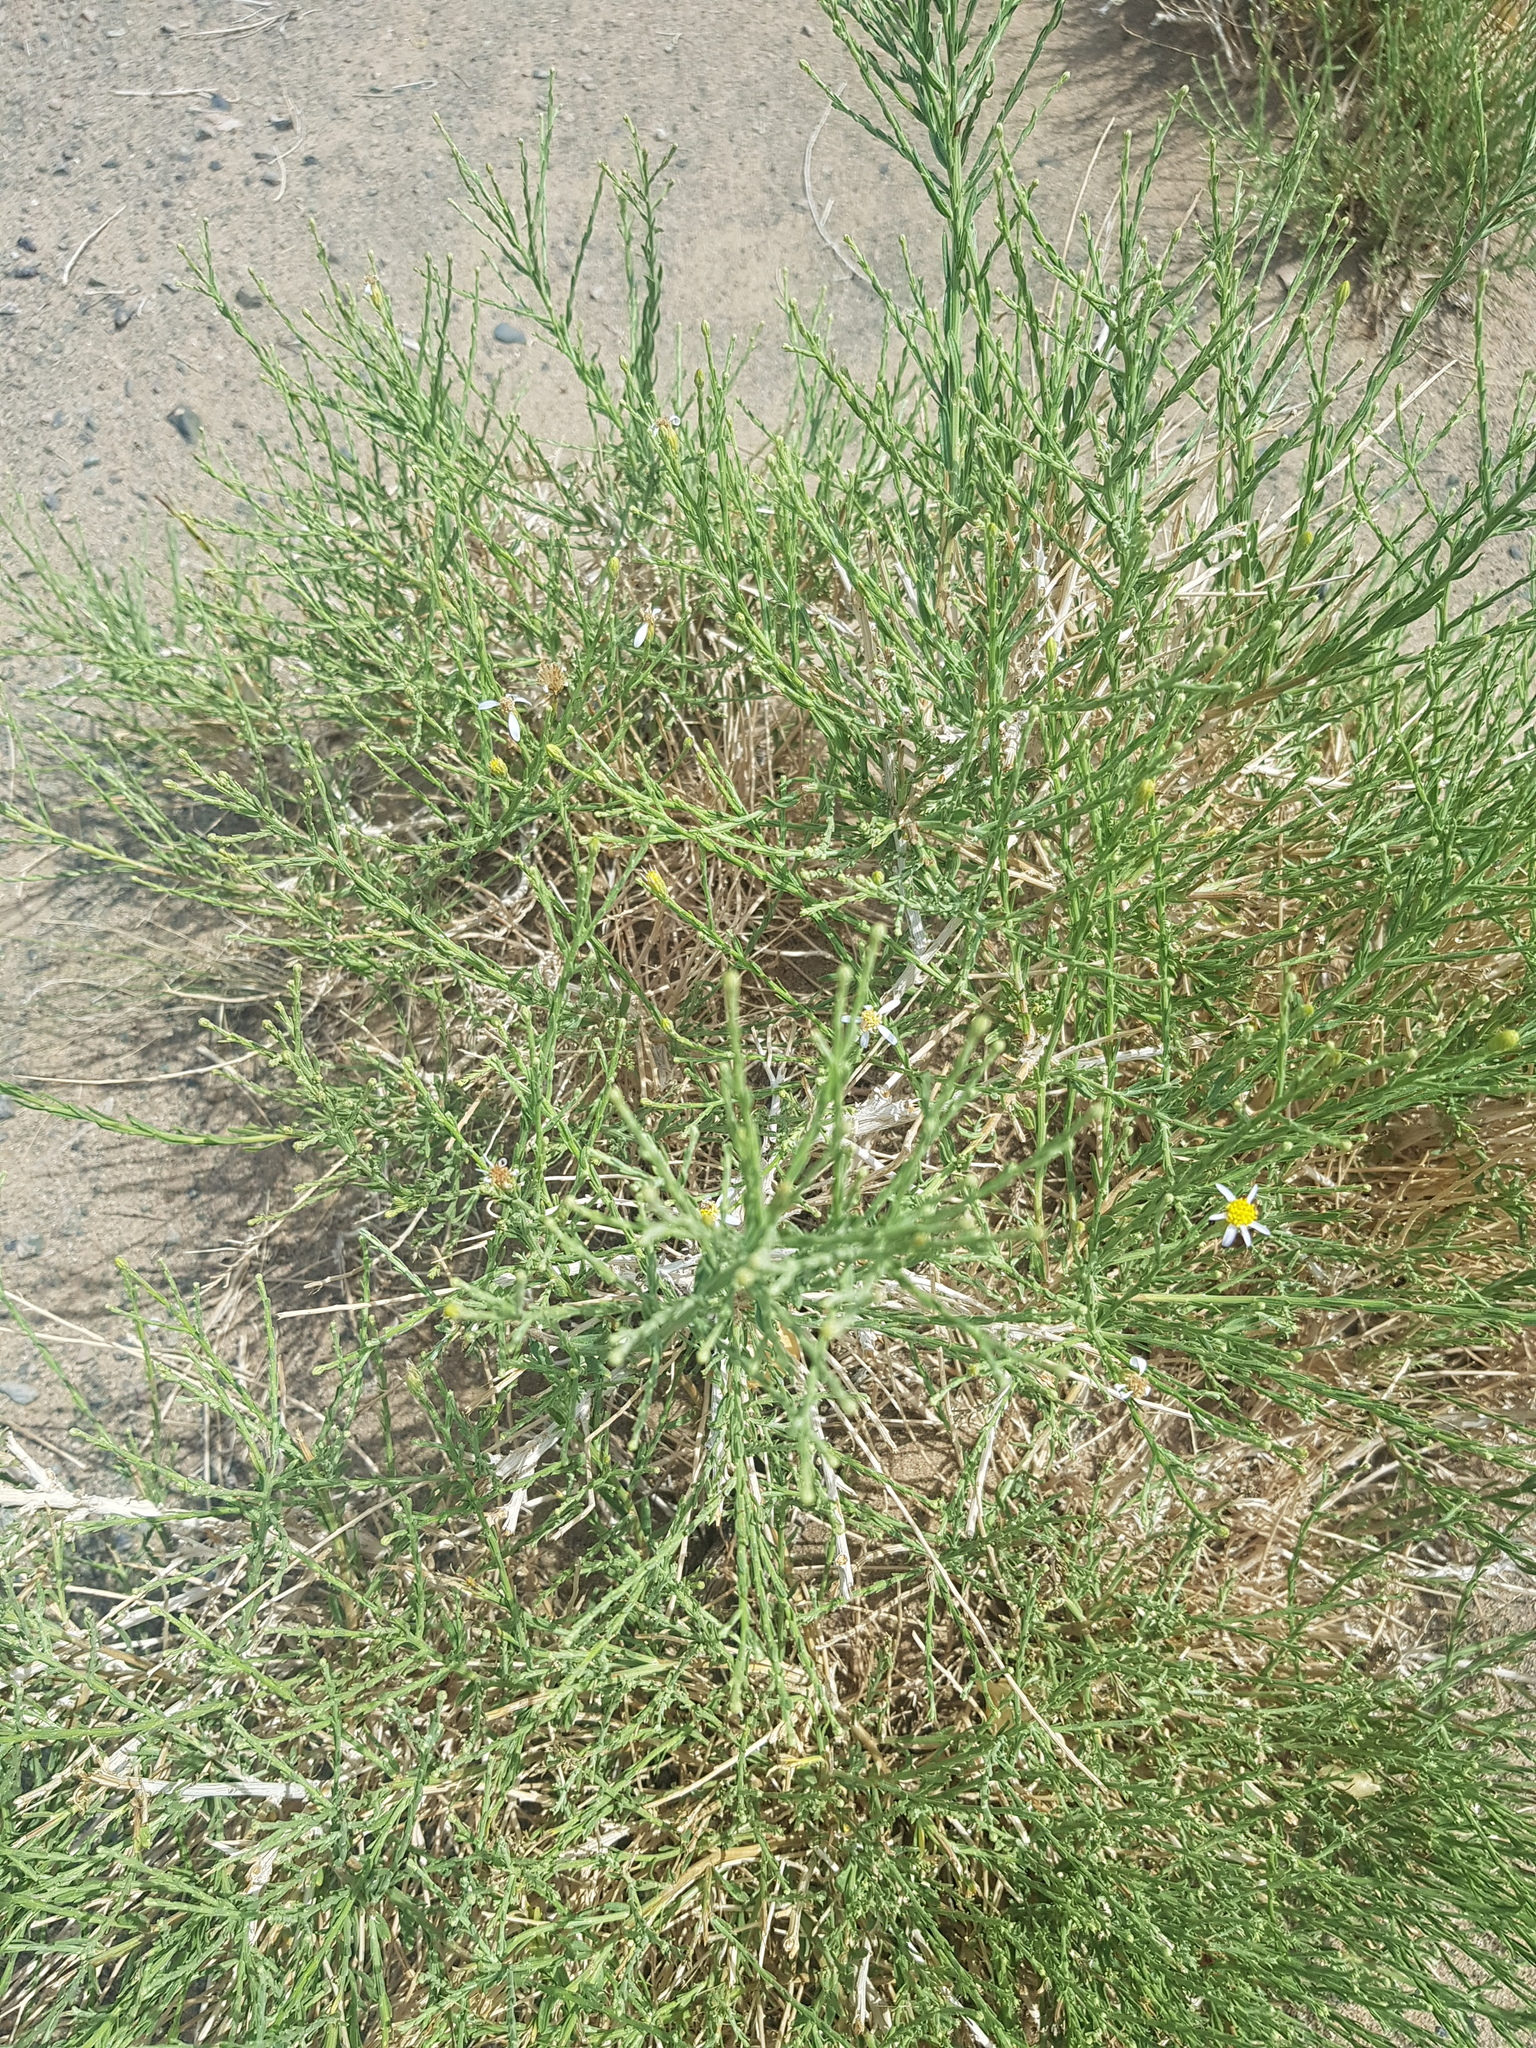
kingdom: Plantae
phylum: Tracheophyta
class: Magnoliopsida
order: Asterales
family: Asteraceae
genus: Asterothamnus
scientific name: Asterothamnus centraliasiaticus
